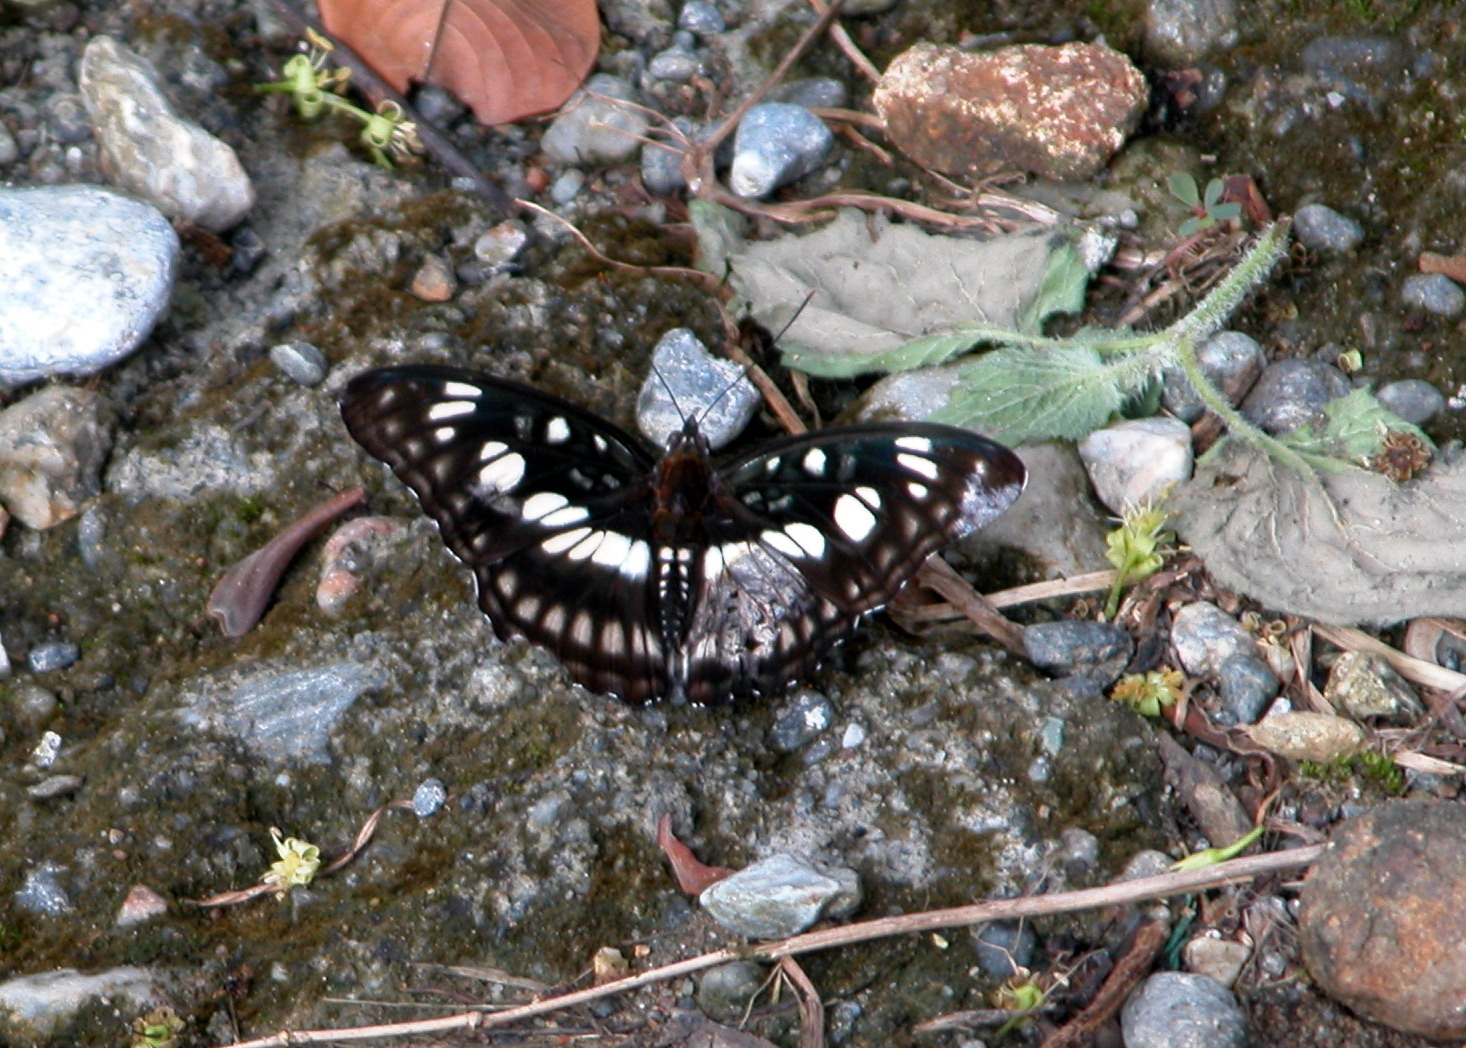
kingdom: Animalia
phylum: Arthropoda
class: Insecta
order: Lepidoptera
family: Nymphalidae
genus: Parathyma
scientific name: Parathyma ranga
